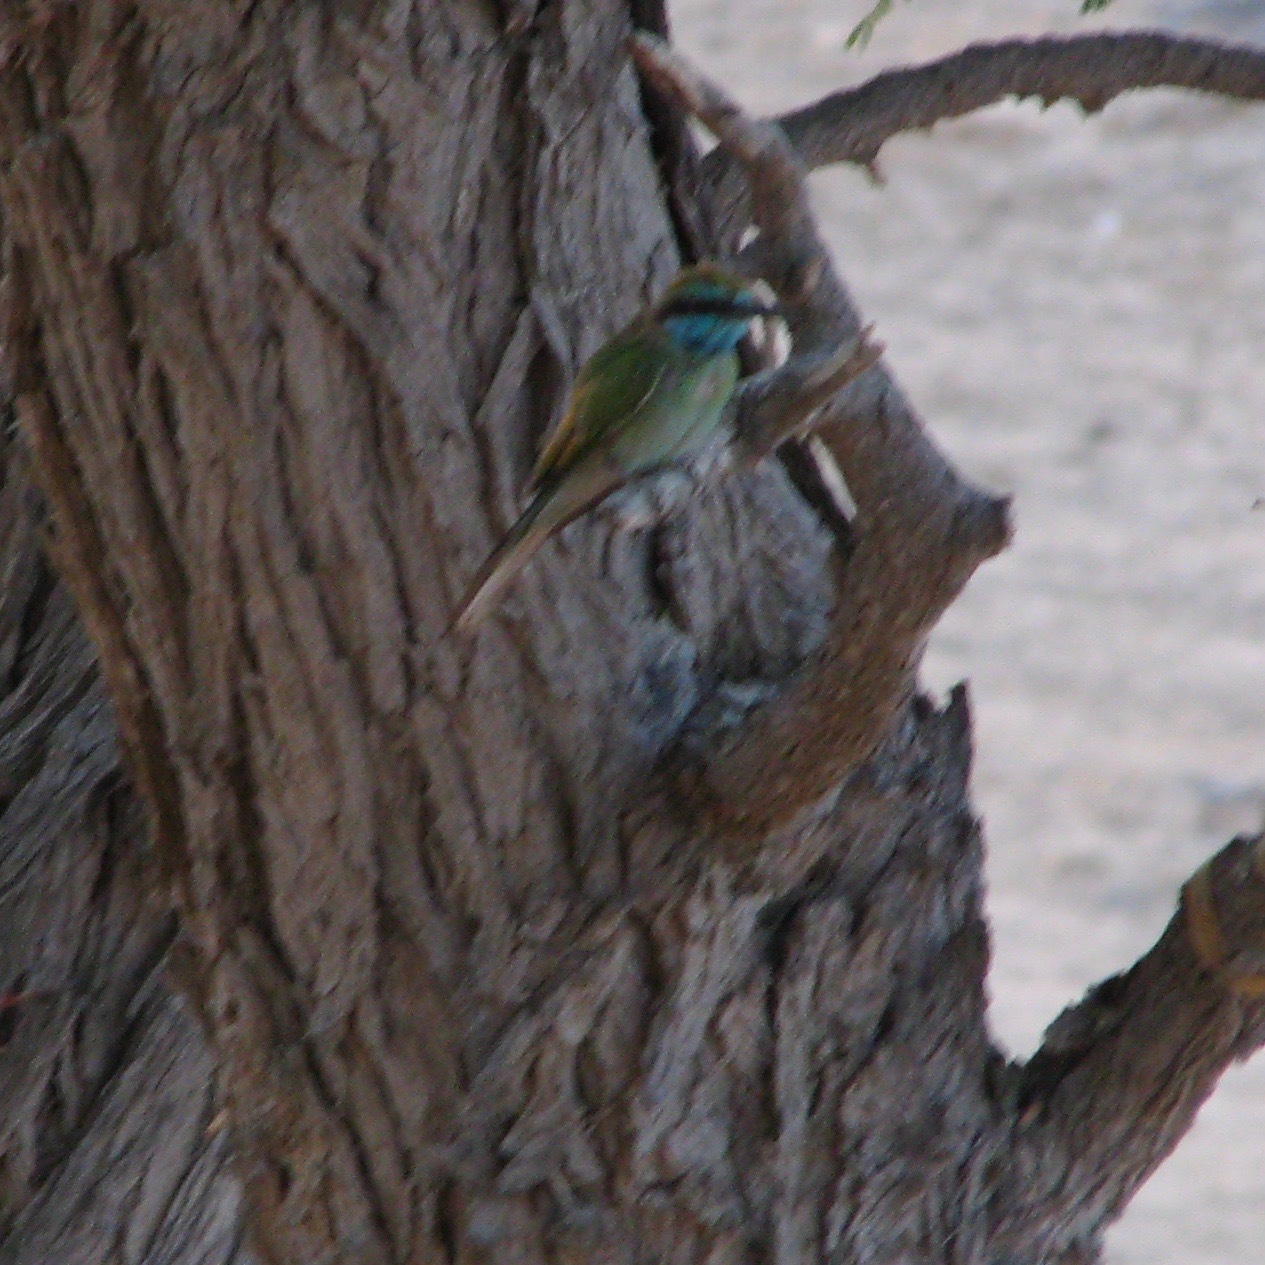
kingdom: Animalia
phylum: Chordata
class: Aves
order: Coraciiformes
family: Meropidae
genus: Merops
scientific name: Merops cyanophrys
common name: Arabian green bee-eater
